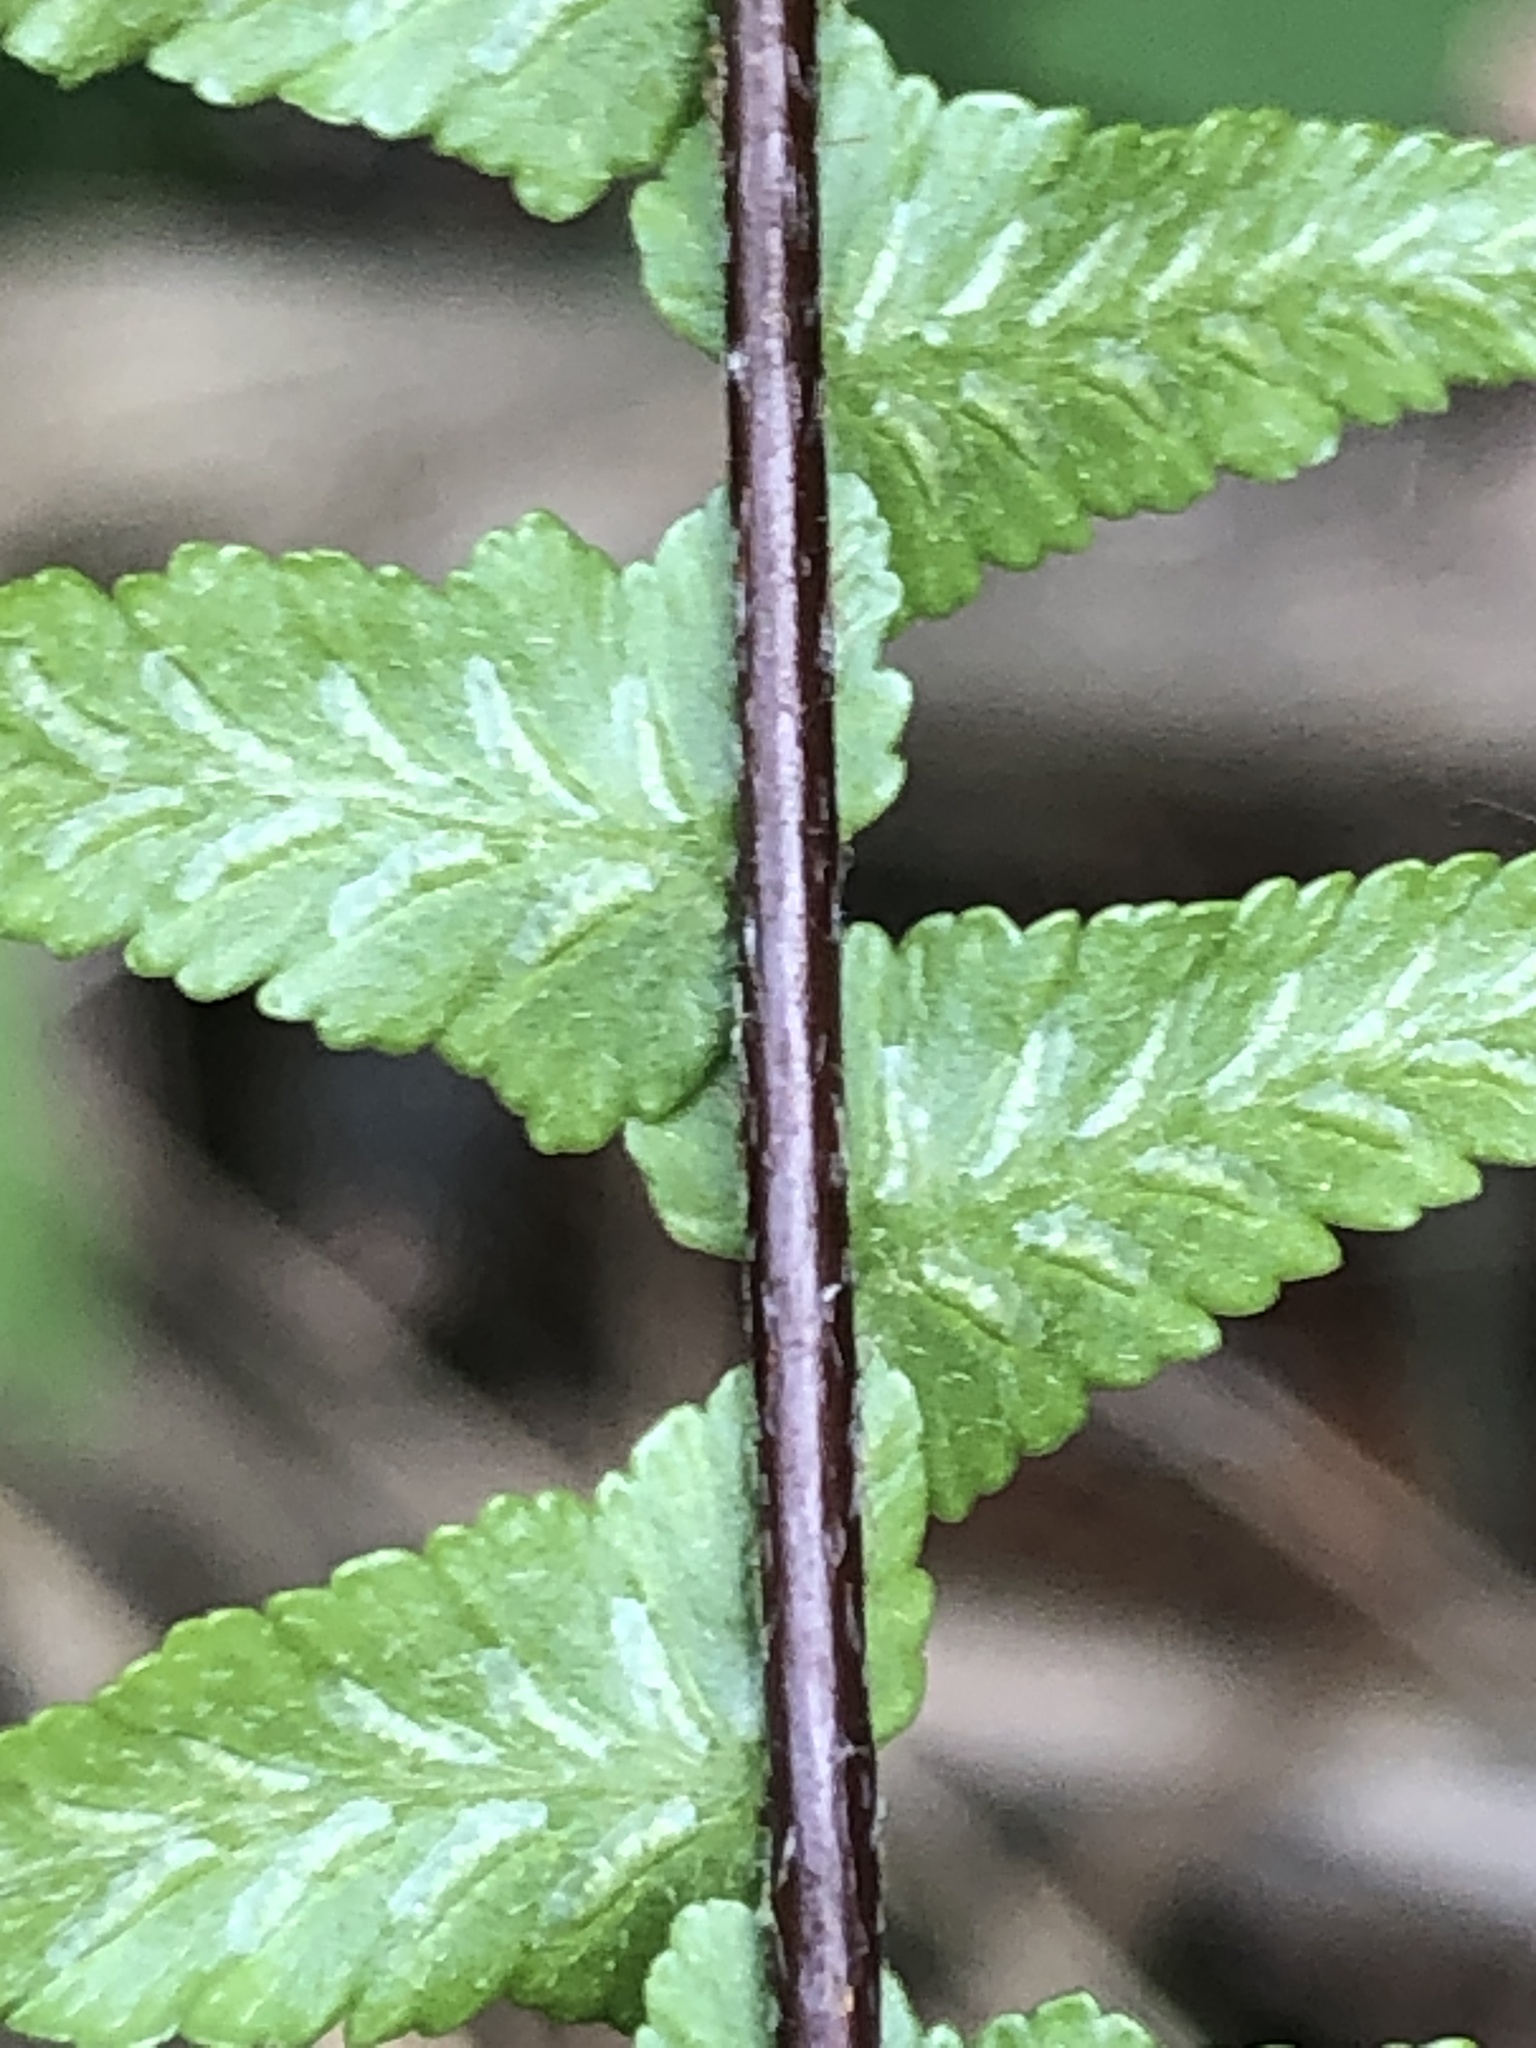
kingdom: Plantae
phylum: Tracheophyta
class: Polypodiopsida
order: Polypodiales
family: Aspleniaceae
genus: Asplenium
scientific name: Asplenium platyneuron
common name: Ebony spleenwort
